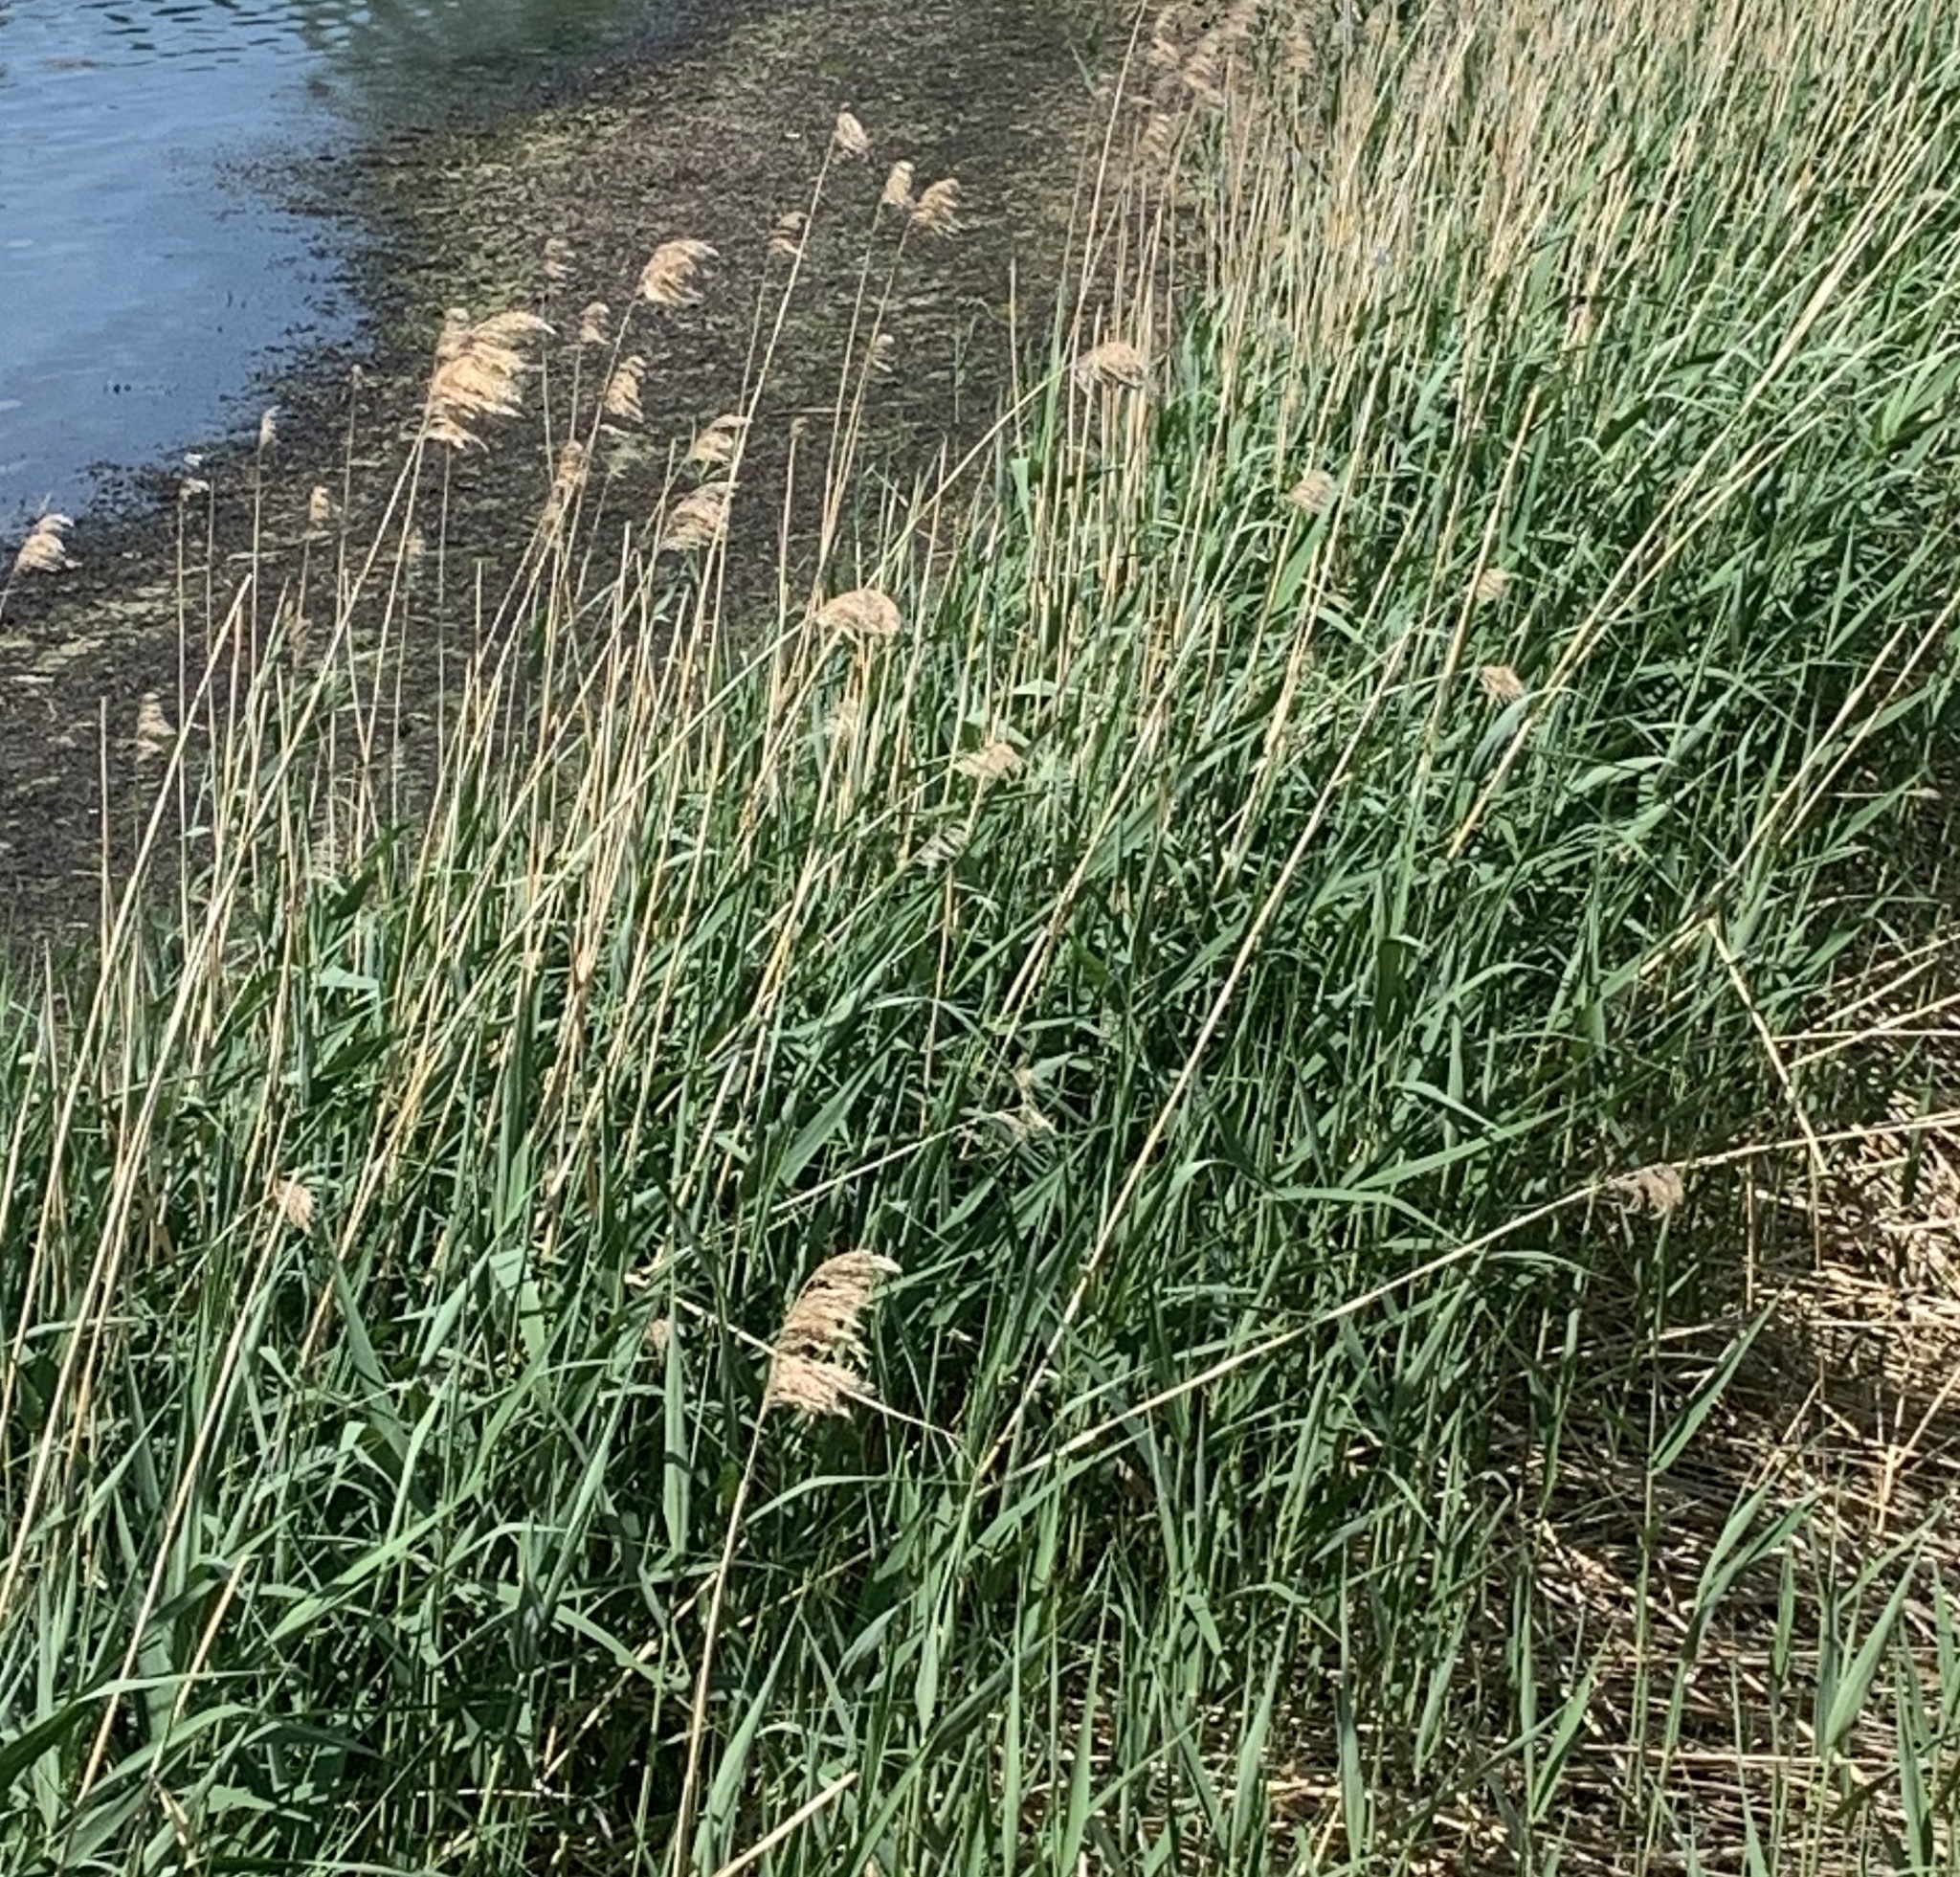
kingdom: Plantae
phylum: Tracheophyta
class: Liliopsida
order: Poales
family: Poaceae
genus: Phragmites
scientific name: Phragmites australis
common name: Common reed
